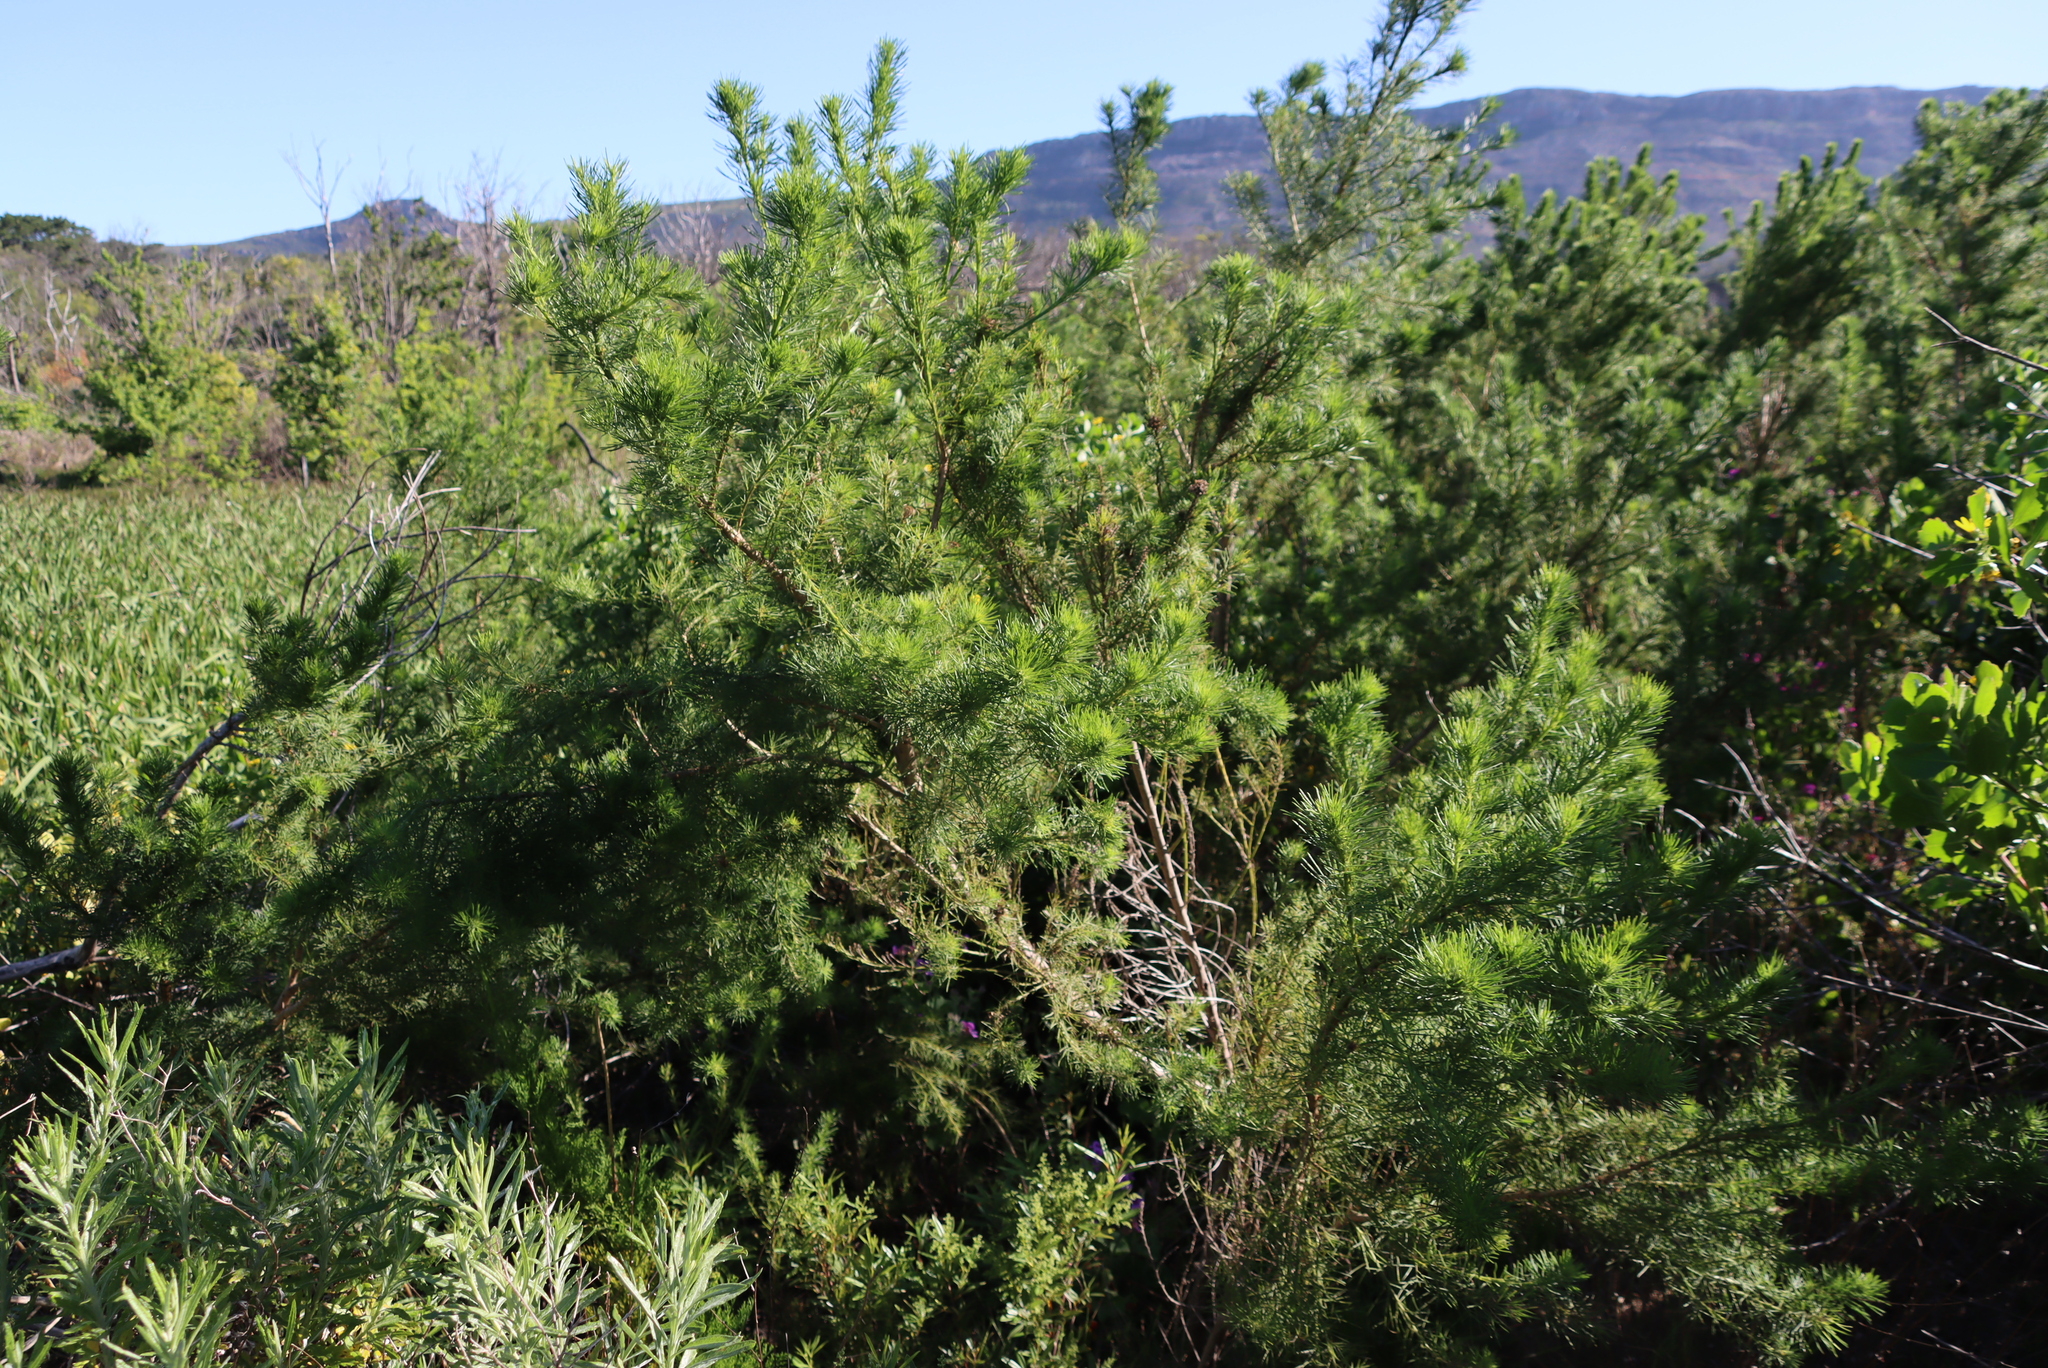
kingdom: Plantae
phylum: Tracheophyta
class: Magnoliopsida
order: Fabales
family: Fabaceae
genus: Psoralea
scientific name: Psoralea pinnata
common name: African scurfpea
